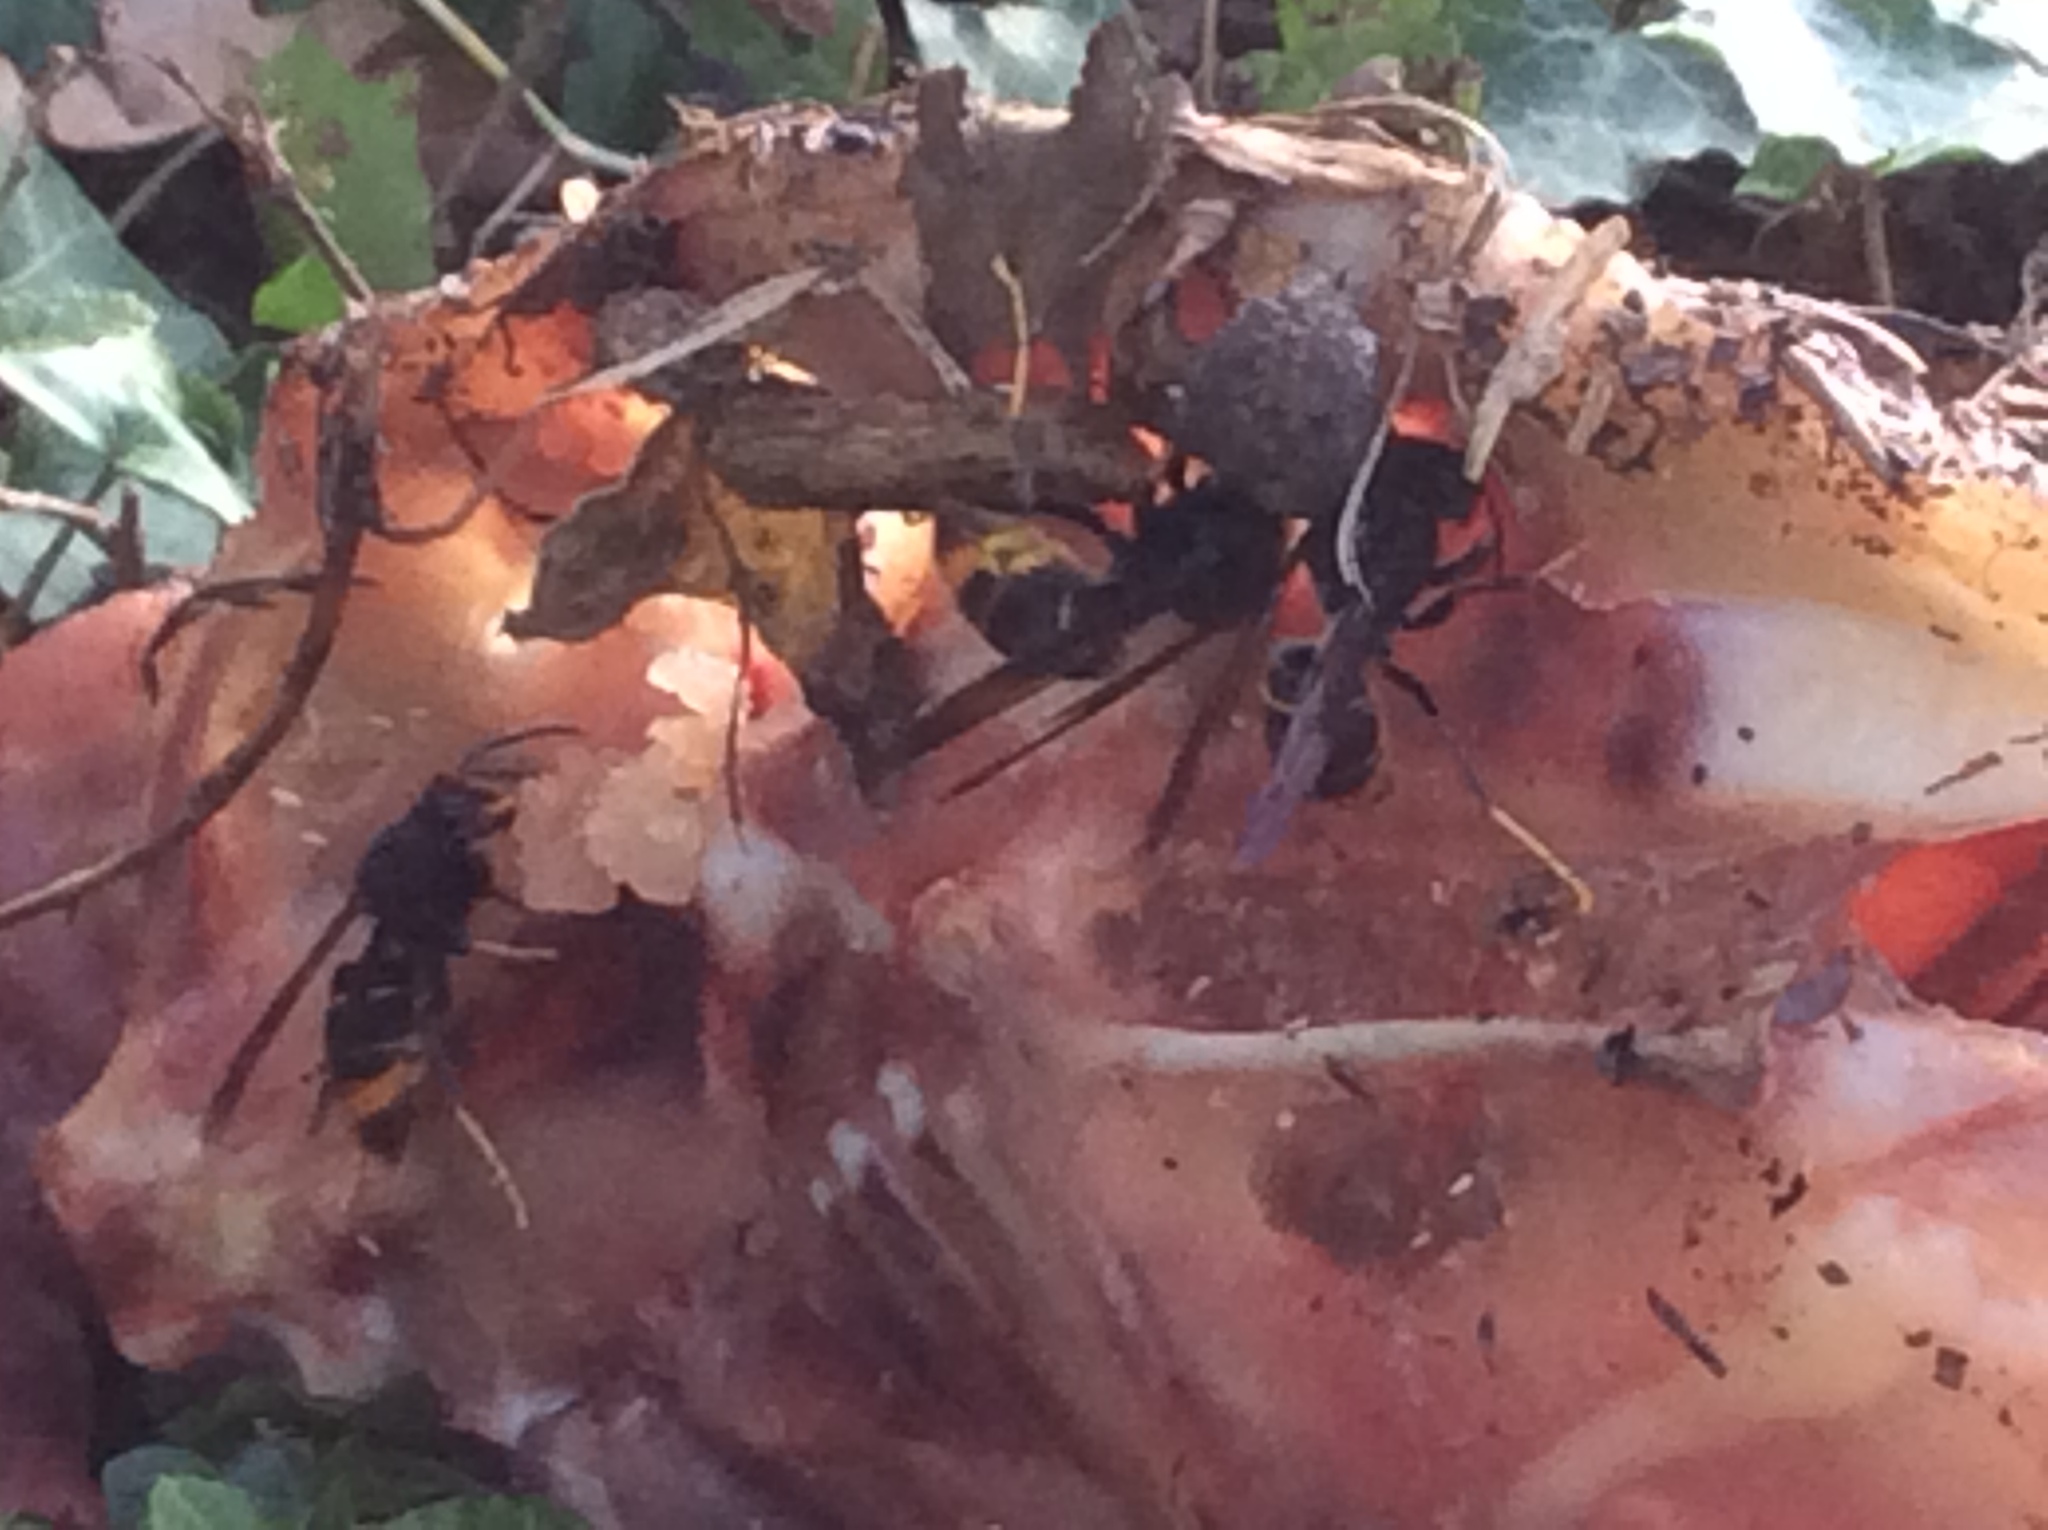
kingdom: Animalia
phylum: Arthropoda
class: Insecta
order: Hymenoptera
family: Vespidae
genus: Vespa
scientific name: Vespa velutina
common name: Asian hornet
